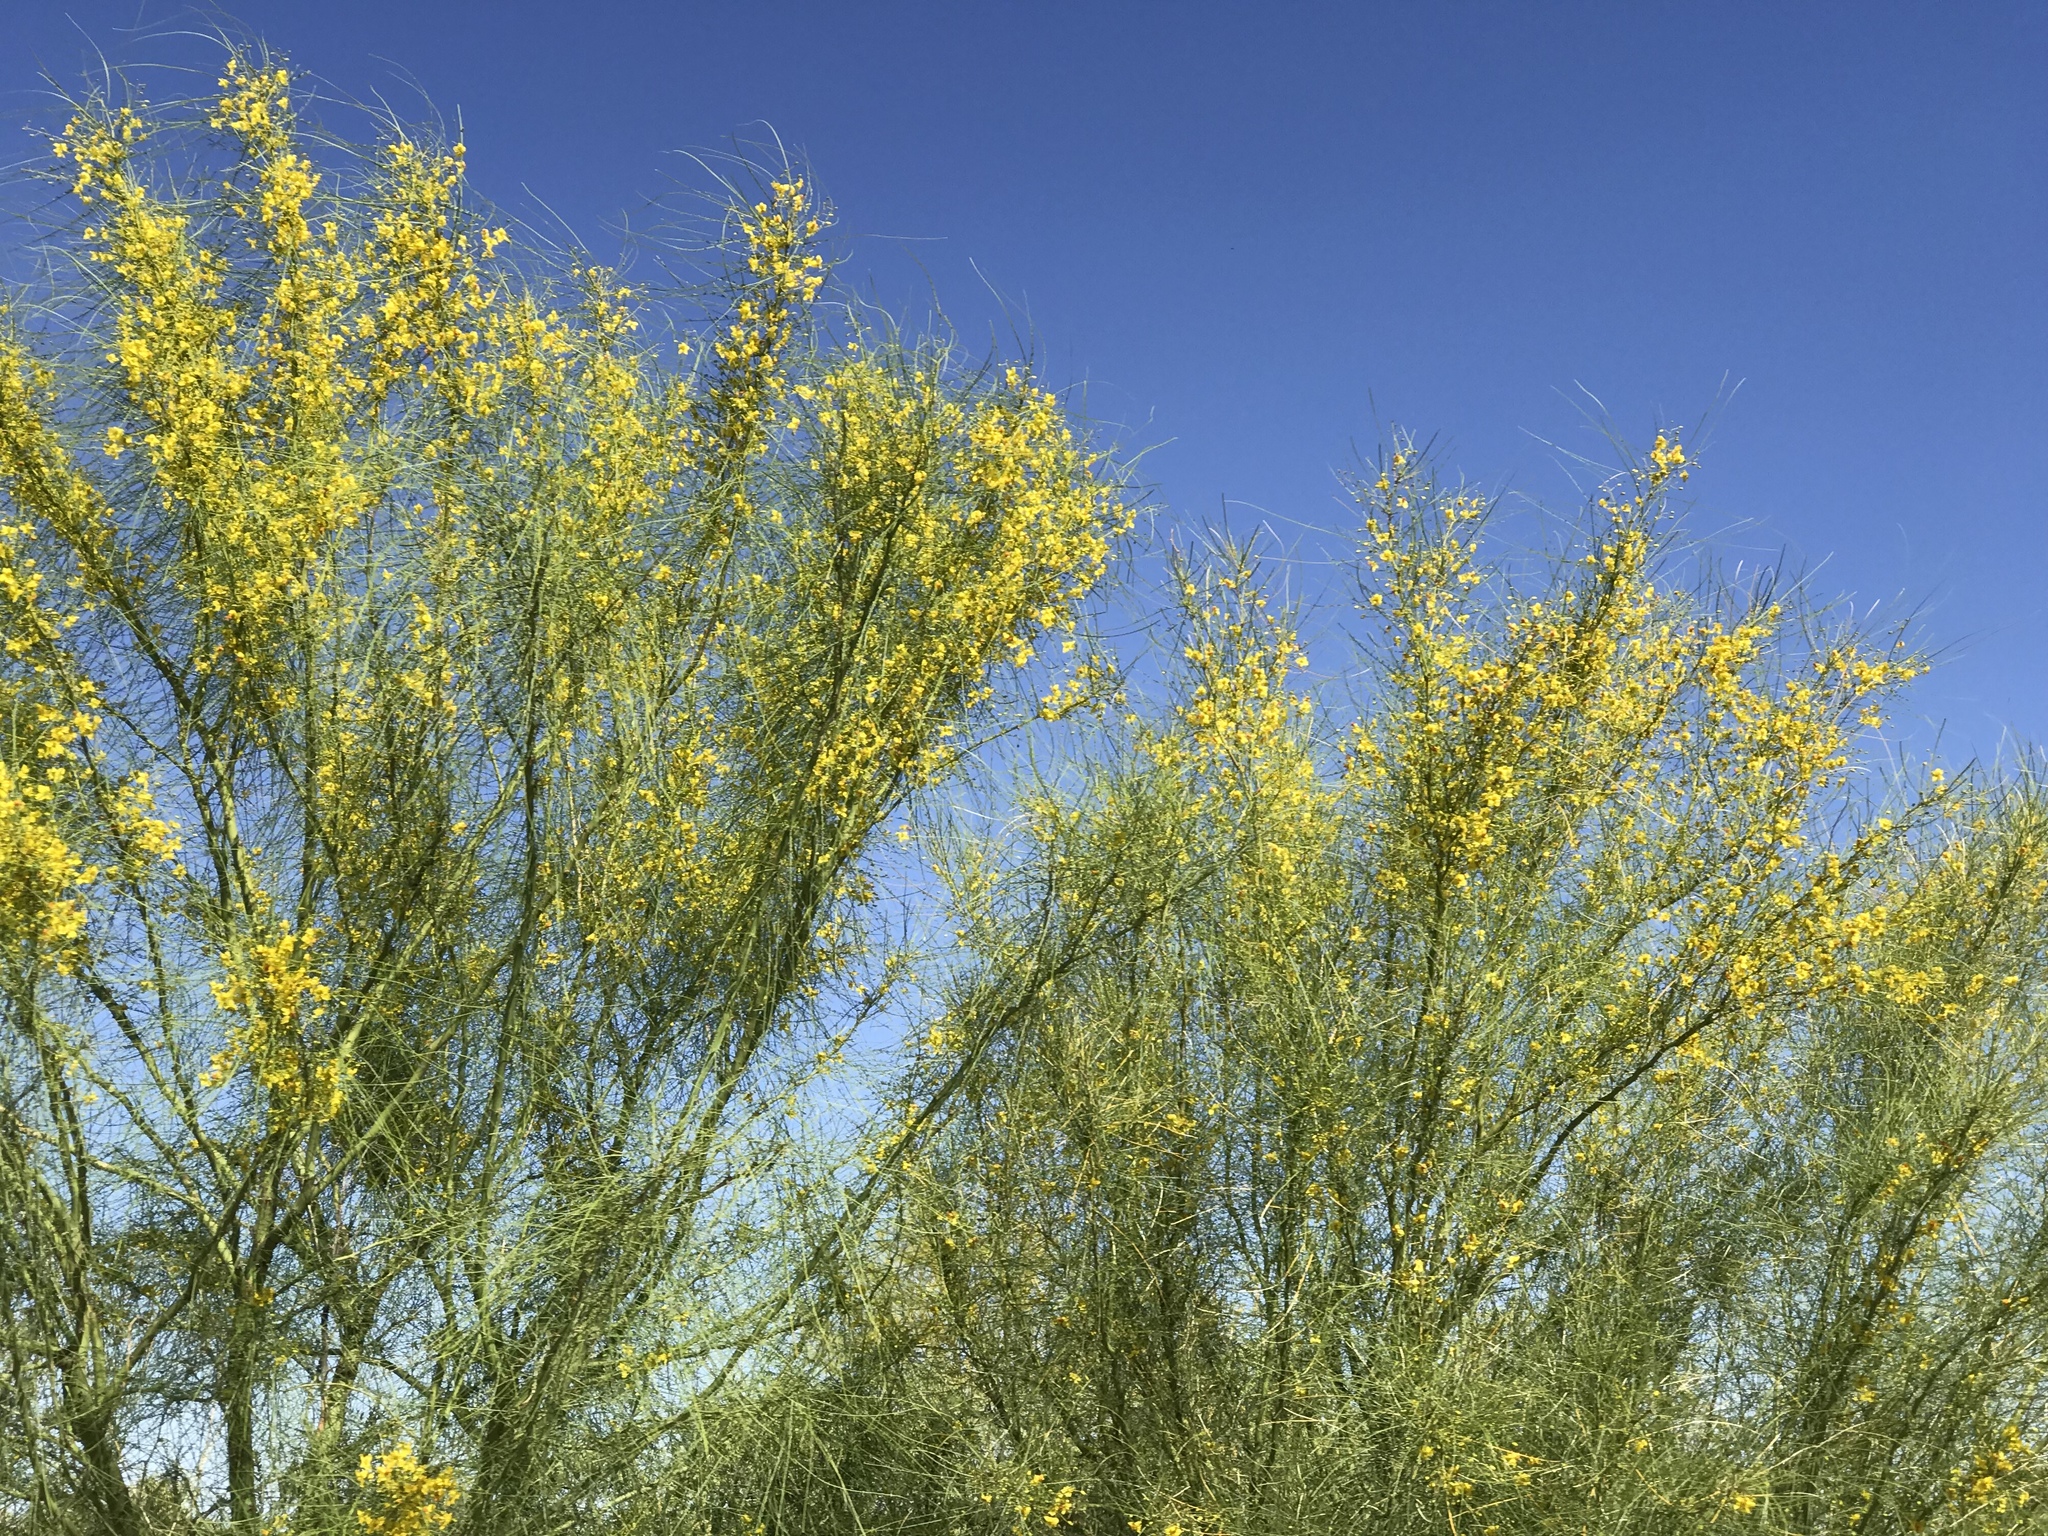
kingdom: Plantae
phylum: Tracheophyta
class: Magnoliopsida
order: Fabales
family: Fabaceae
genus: Parkinsonia
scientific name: Parkinsonia aculeata
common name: Jerusalem thorn
